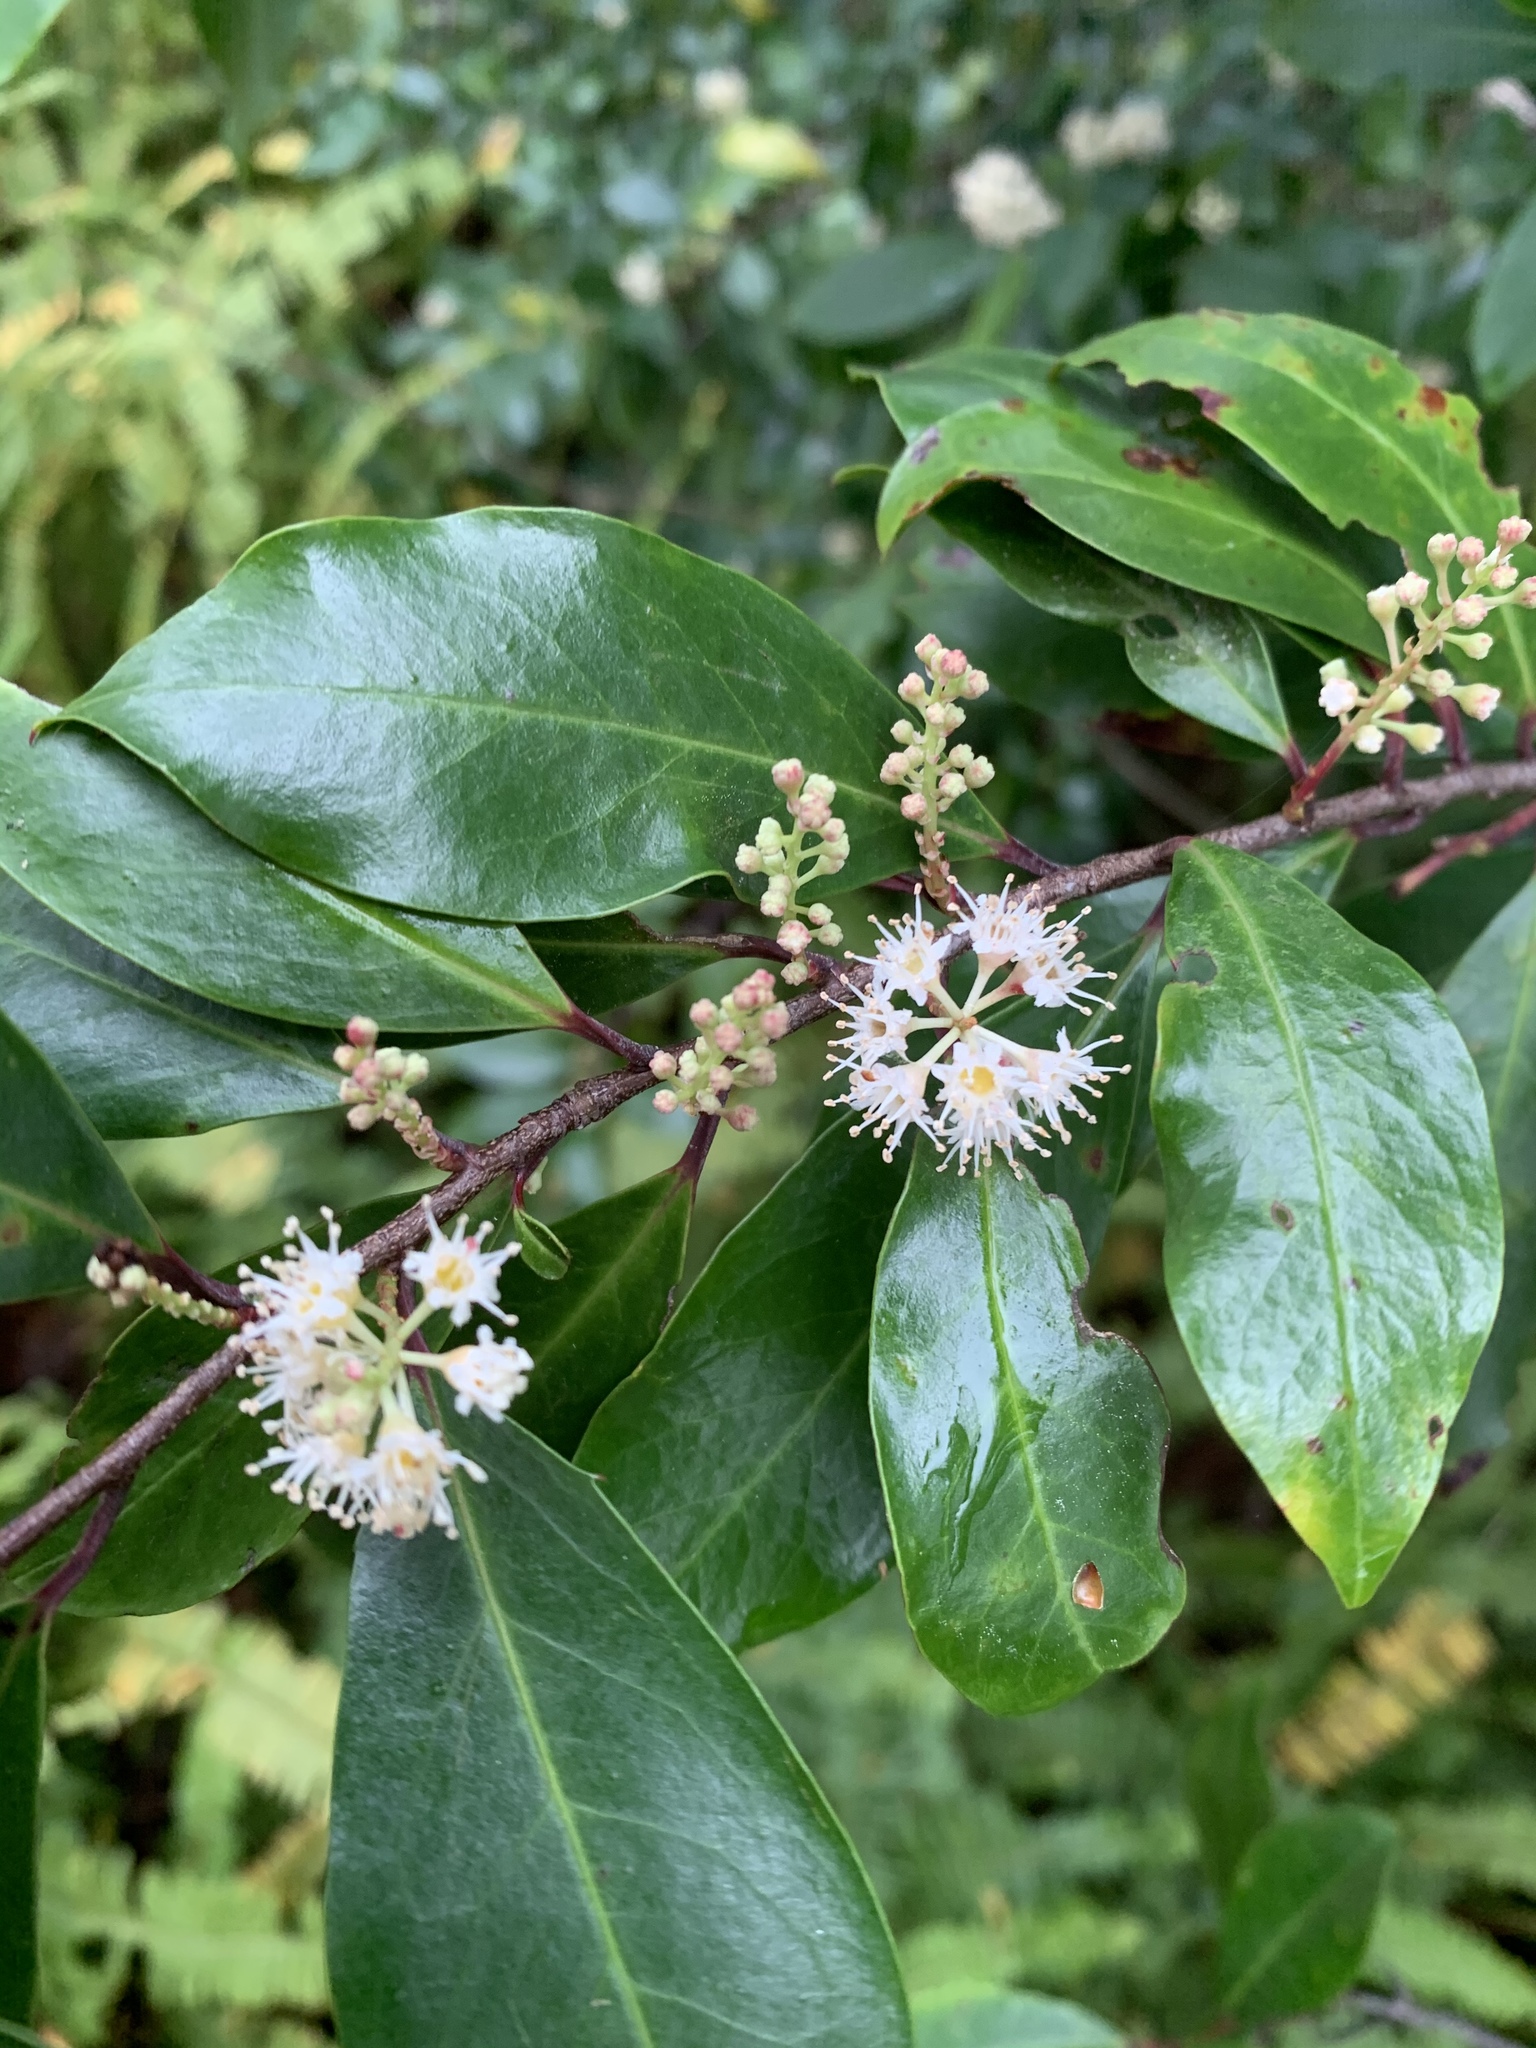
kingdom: Plantae
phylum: Tracheophyta
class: Magnoliopsida
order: Rosales
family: Rosaceae
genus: Prunus
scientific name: Prunus caroliniana
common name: Carolina laurel cherry
